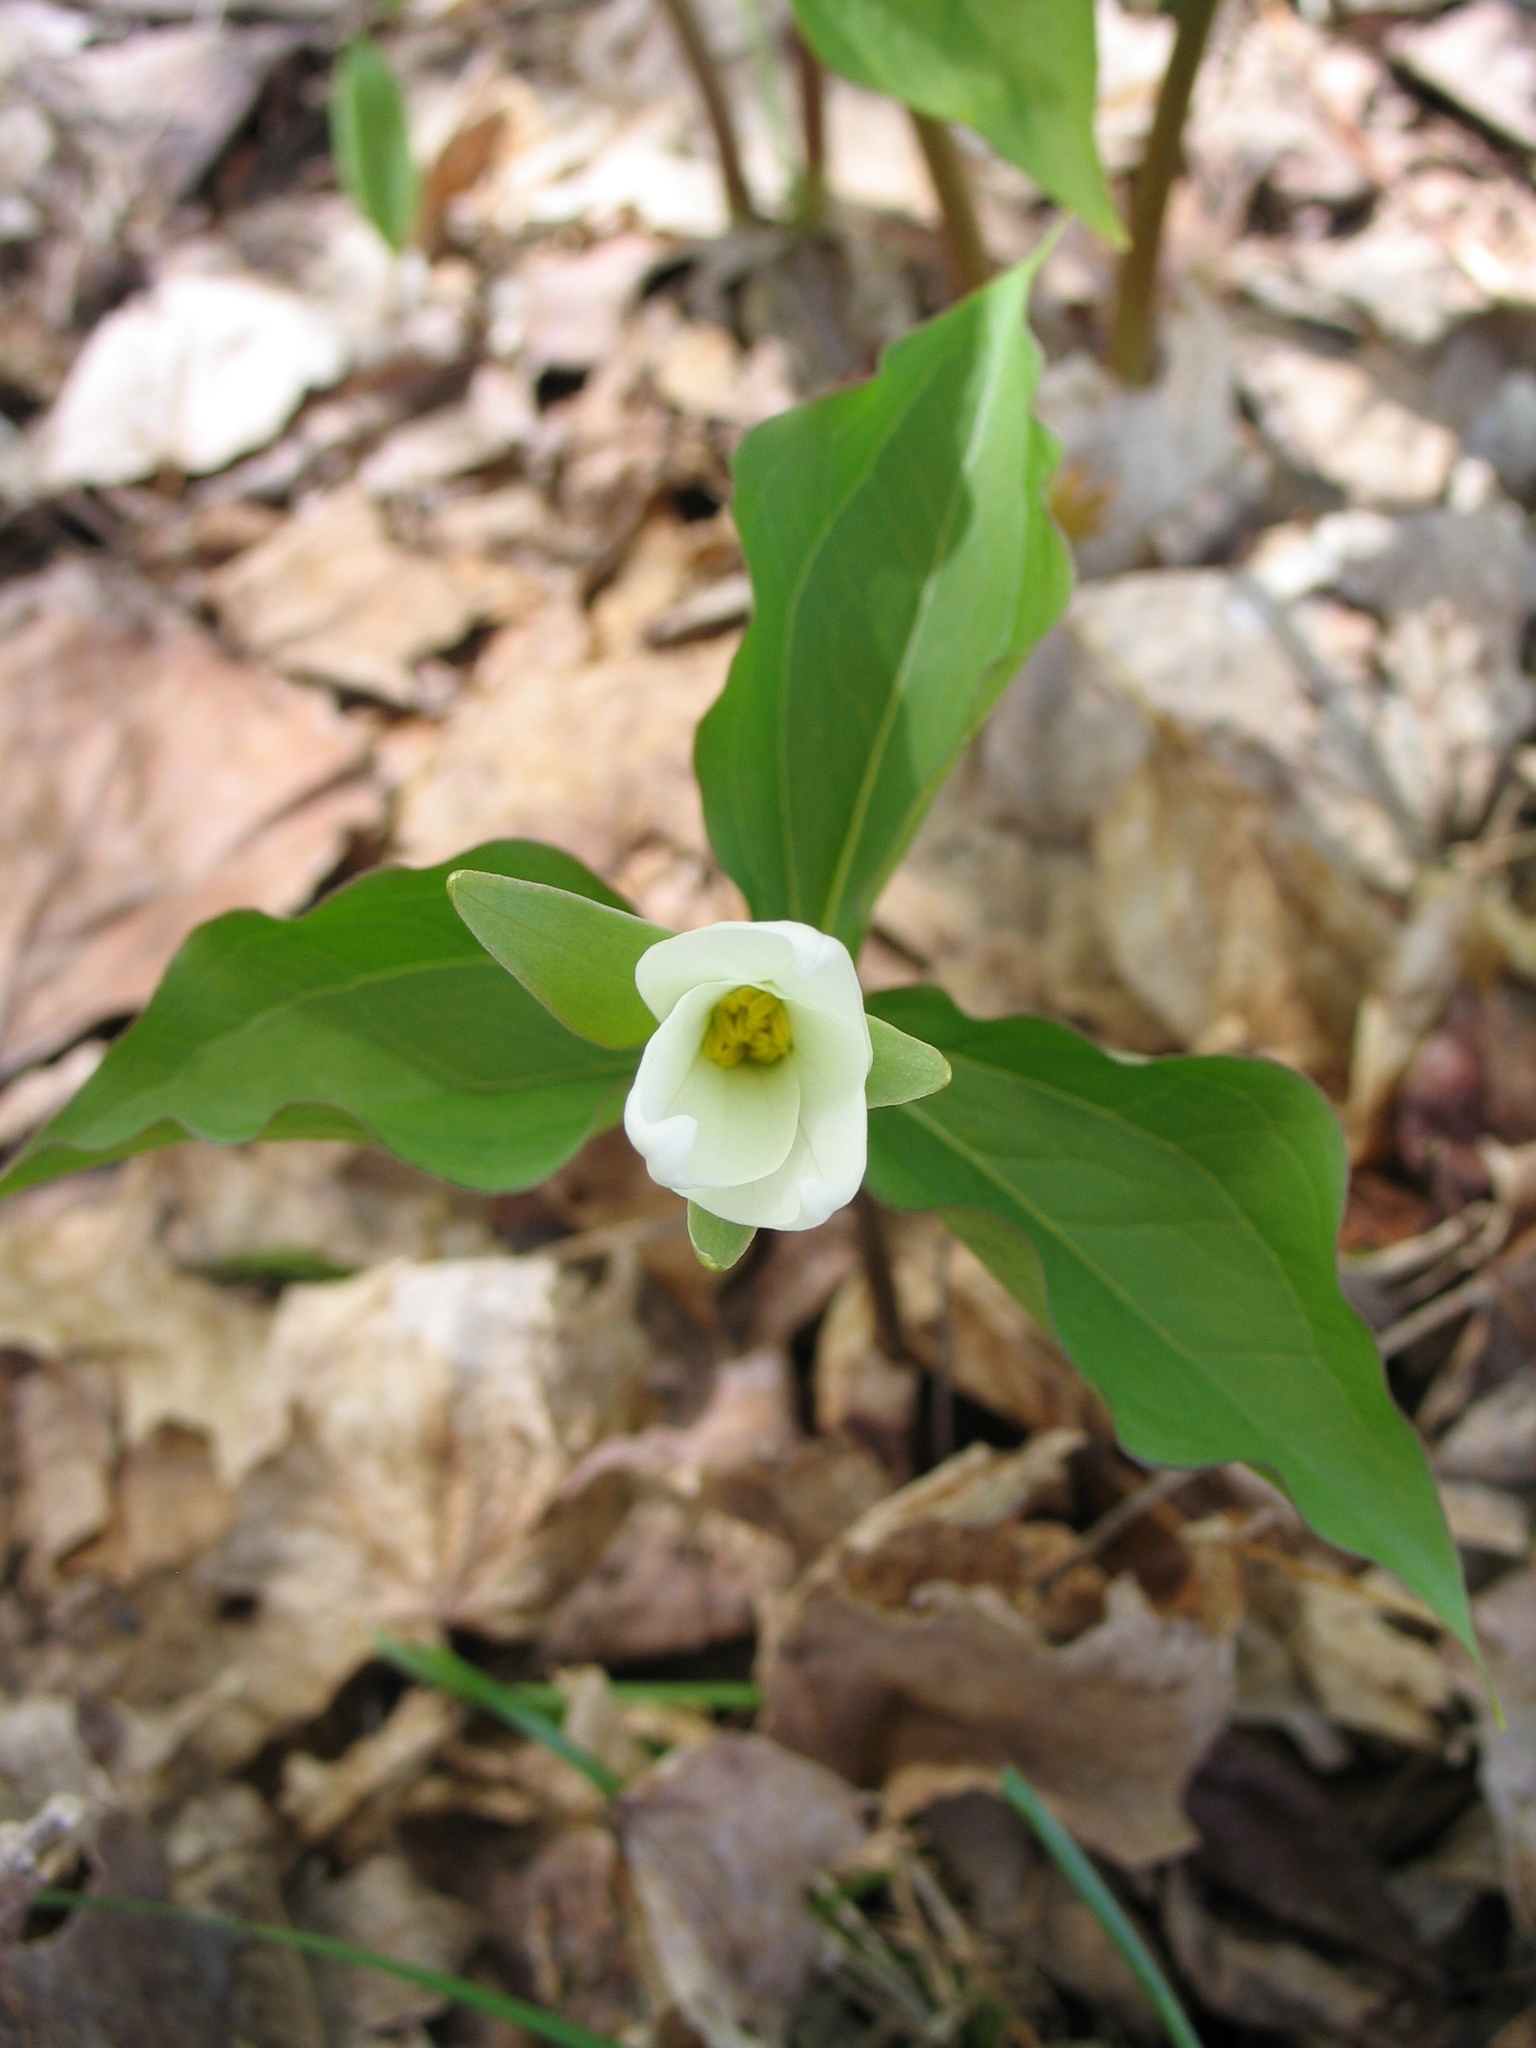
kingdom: Plantae
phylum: Tracheophyta
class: Liliopsida
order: Liliales
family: Melanthiaceae
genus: Trillium
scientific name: Trillium grandiflorum
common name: Great white trillium
